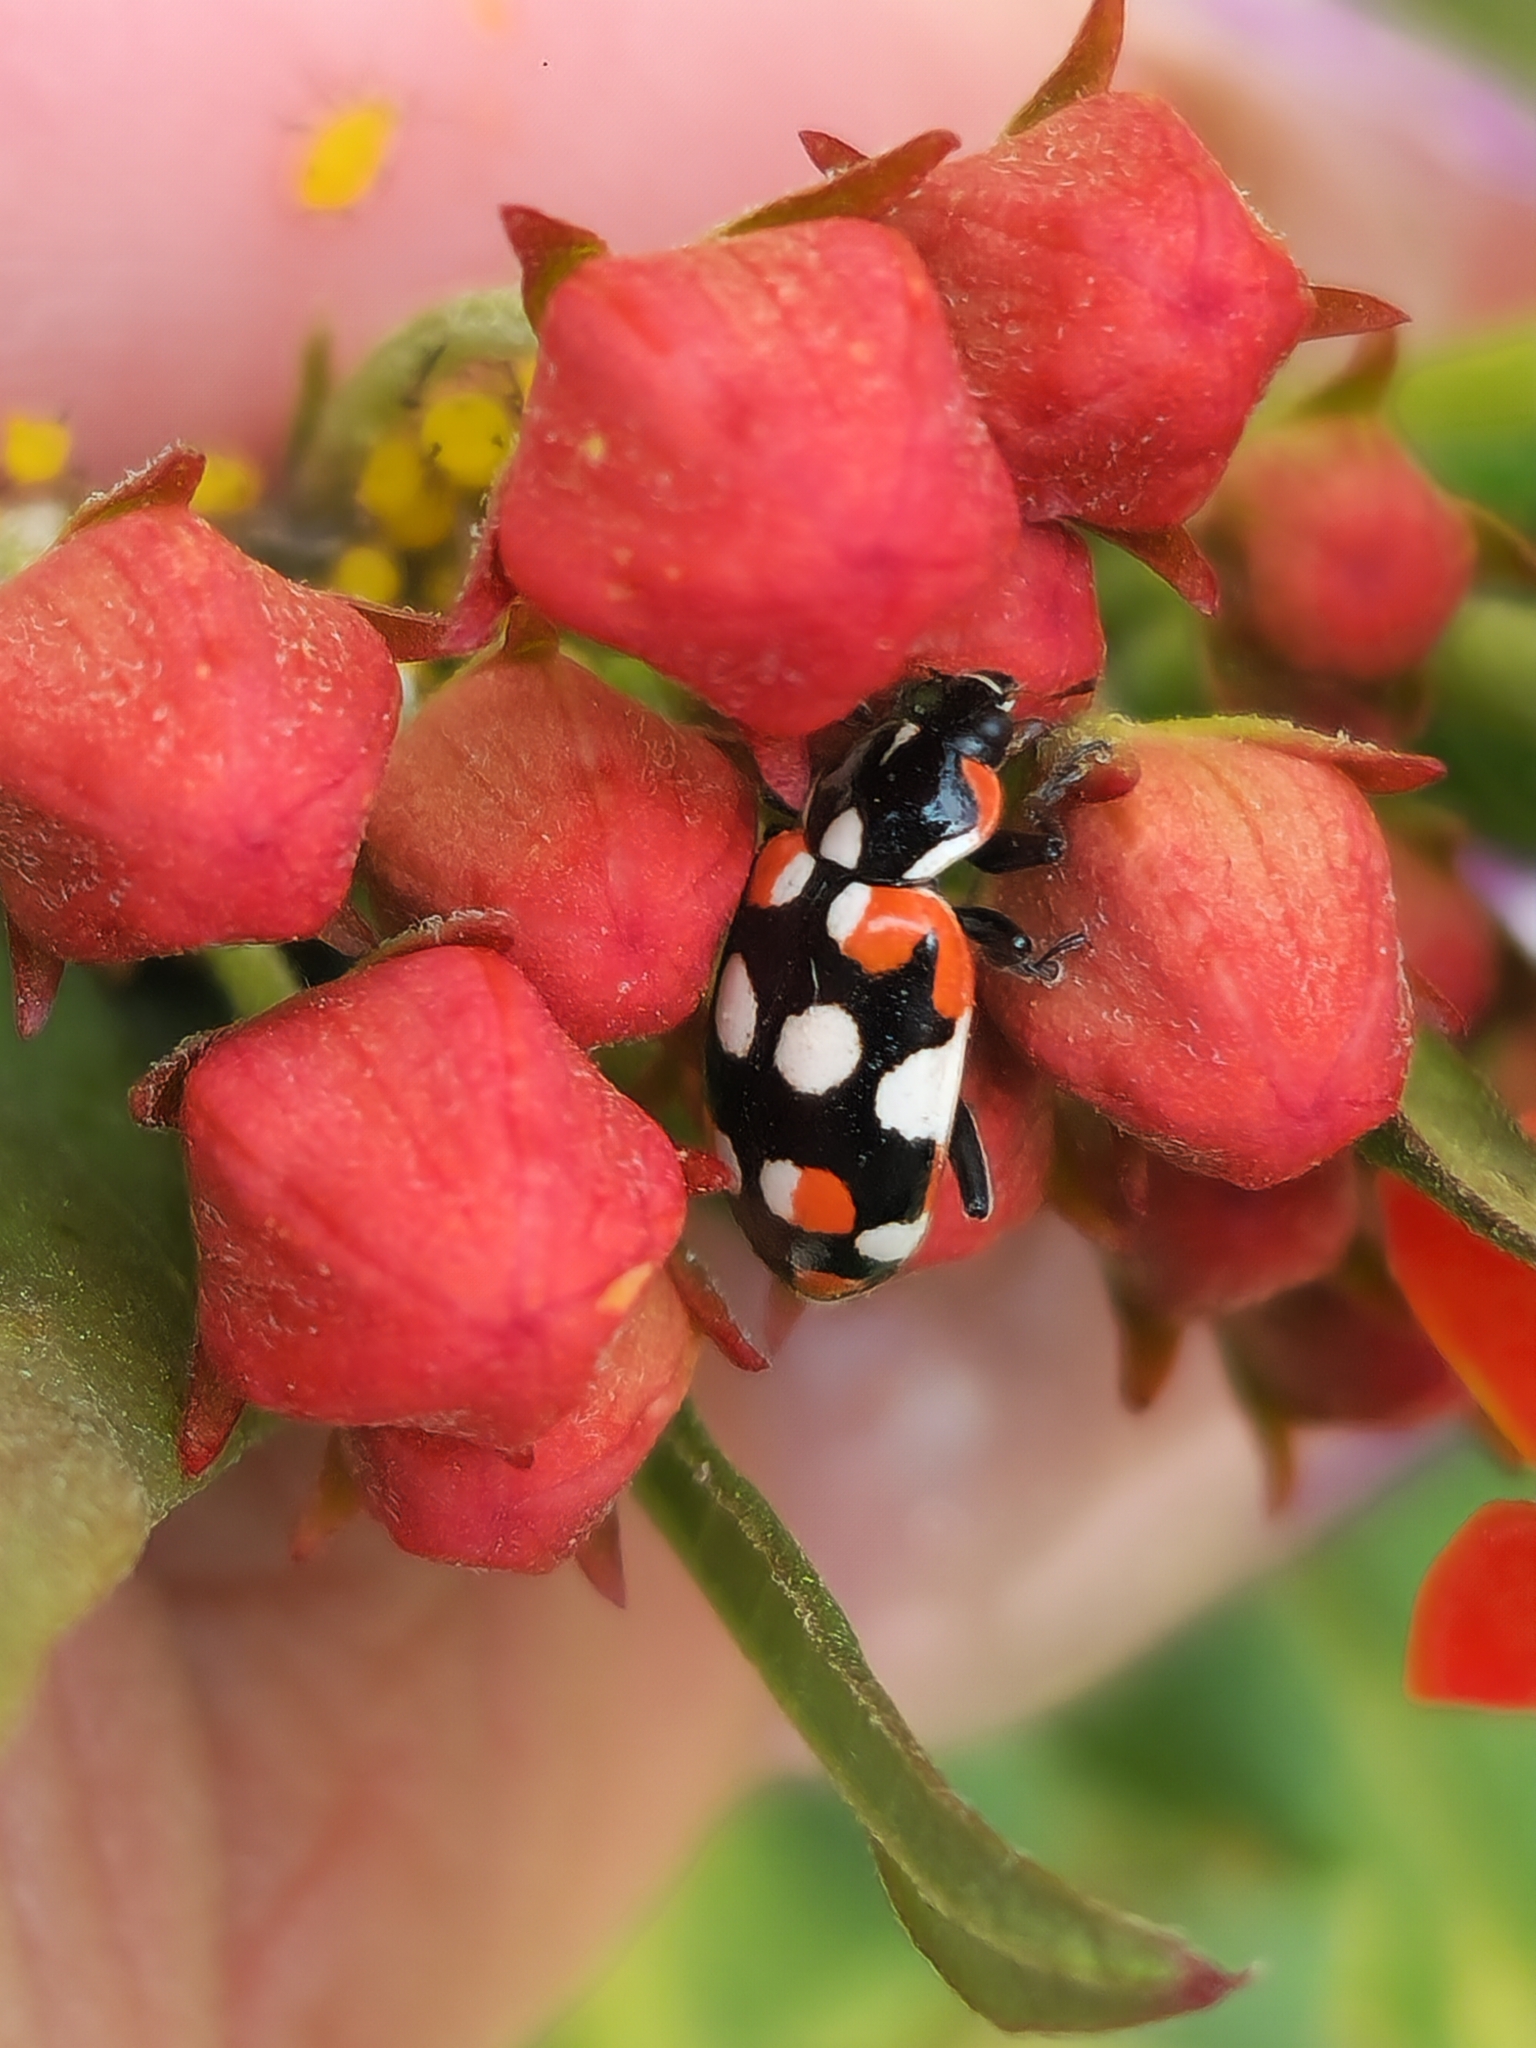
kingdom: Animalia
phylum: Arthropoda
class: Insecta
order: Coleoptera
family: Coccinellidae
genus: Eriopis
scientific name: Eriopis connexa
